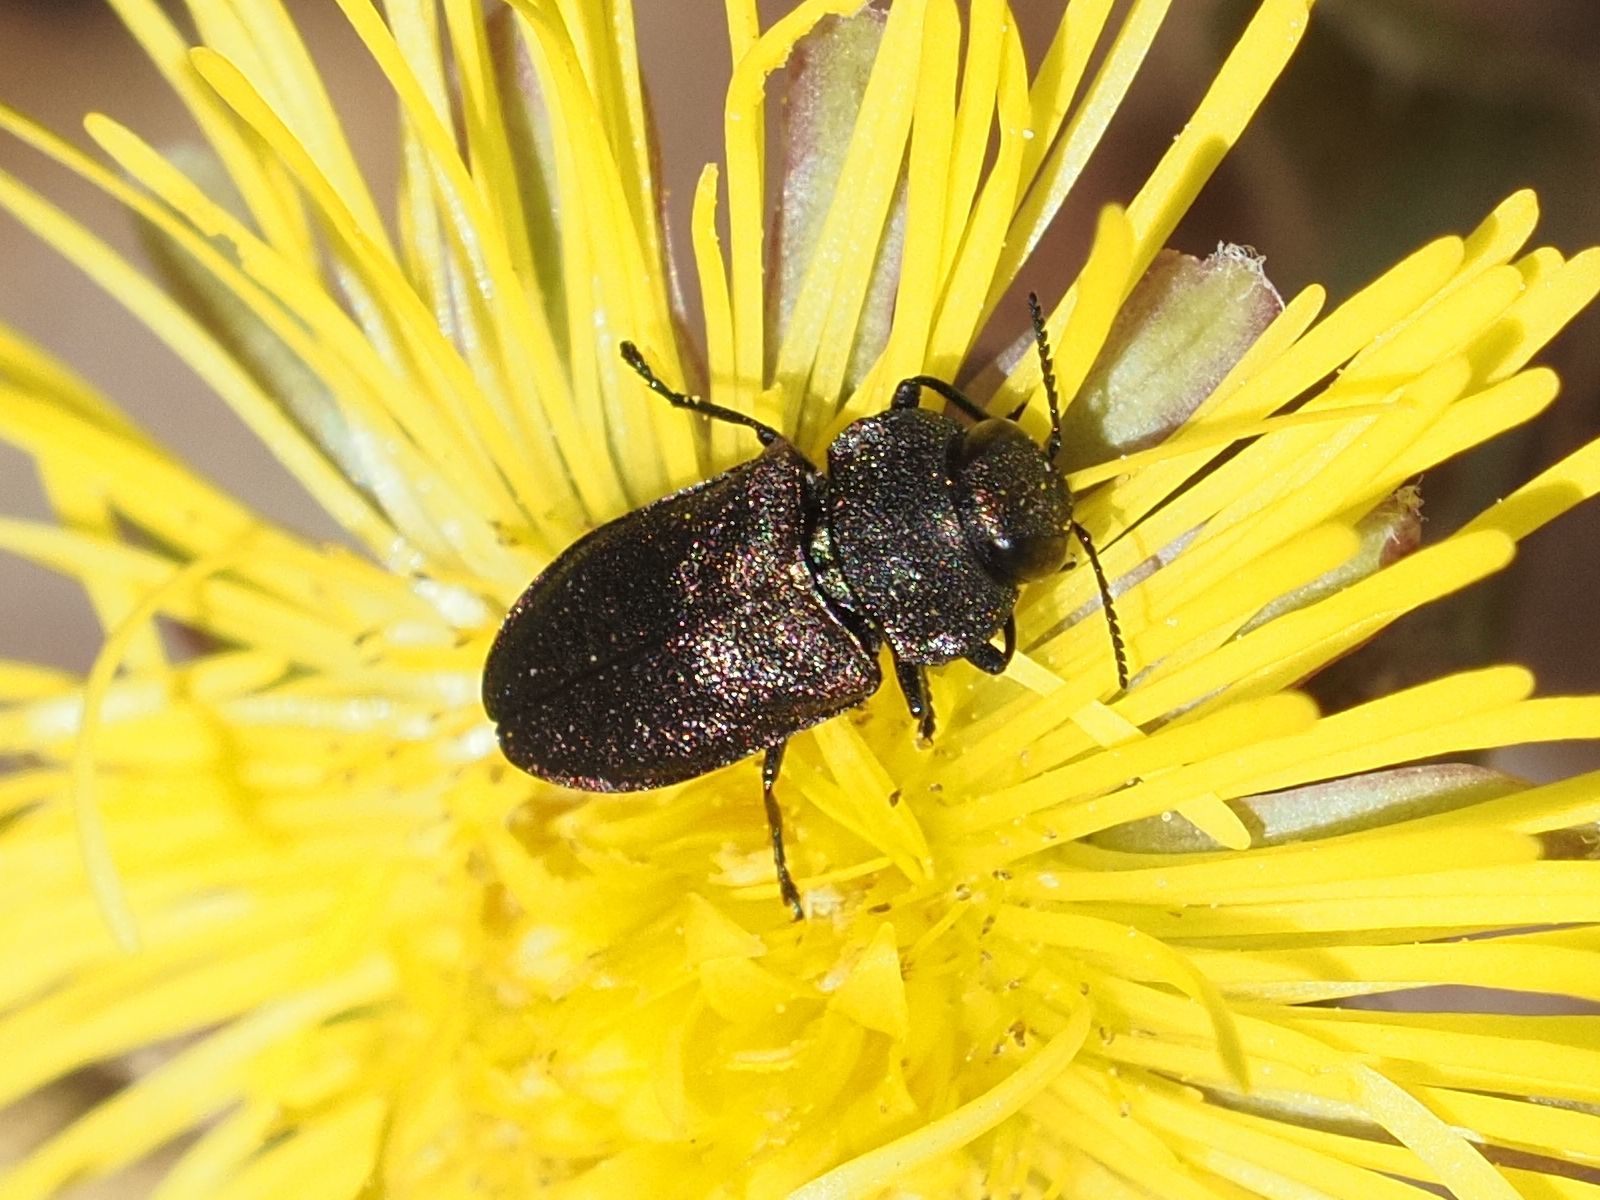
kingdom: Animalia
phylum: Arthropoda
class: Insecta
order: Coleoptera
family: Buprestidae
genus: Anthaxia
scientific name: Anthaxia helvetica
